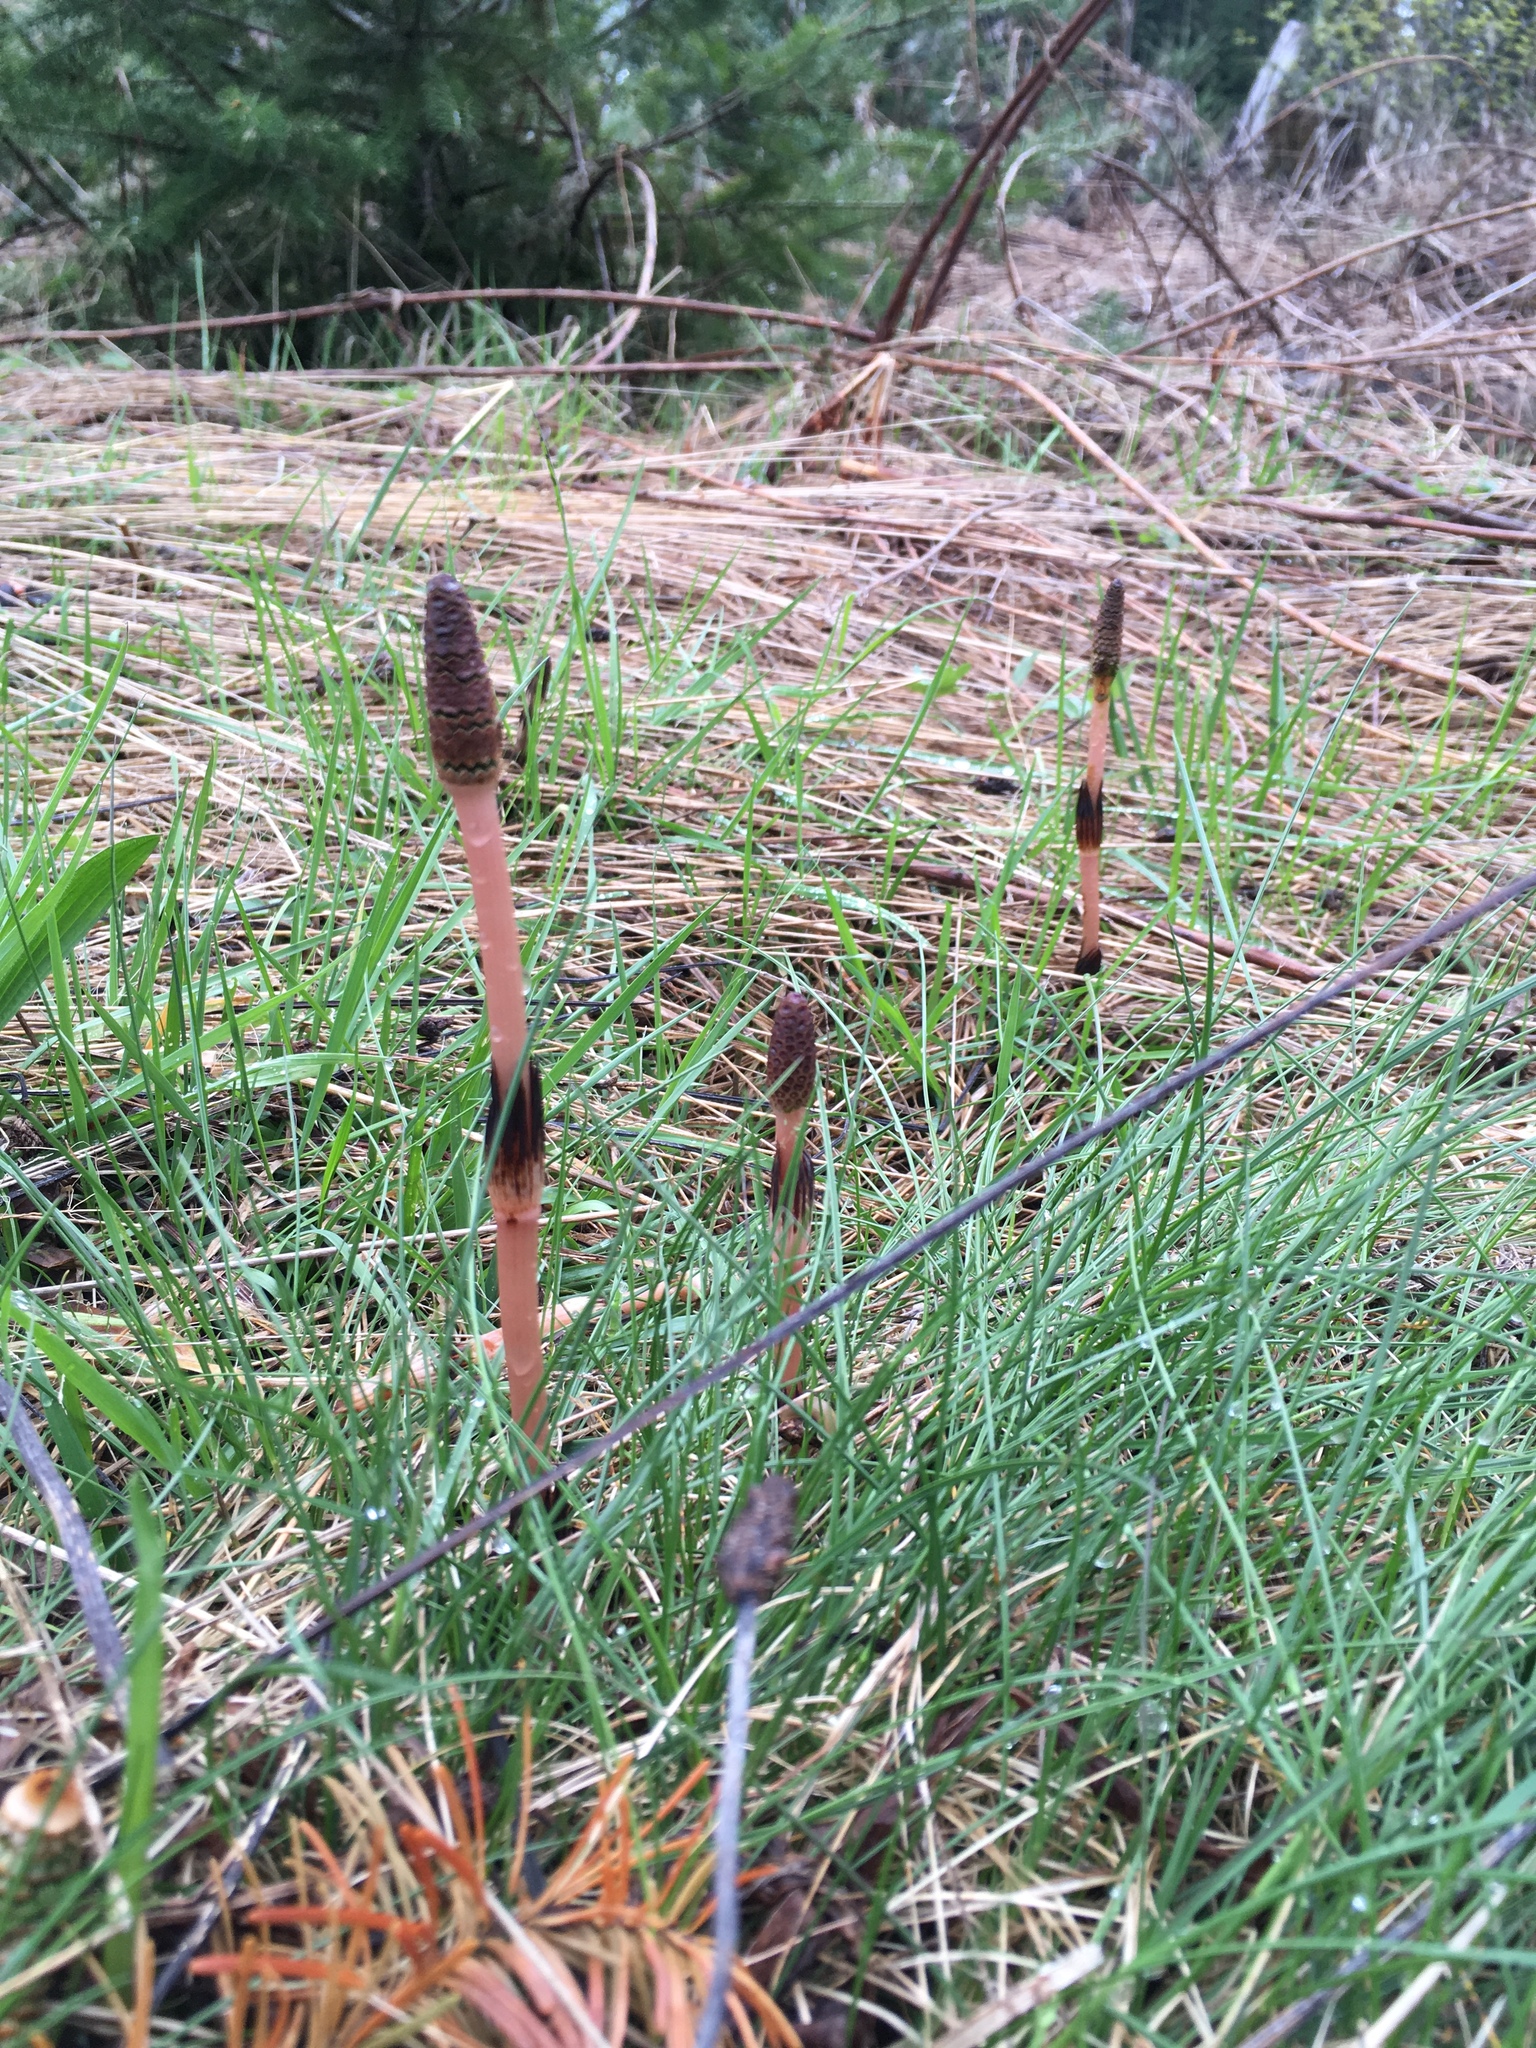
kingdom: Plantae
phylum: Tracheophyta
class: Polypodiopsida
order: Equisetales
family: Equisetaceae
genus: Equisetum
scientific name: Equisetum arvense
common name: Field horsetail
